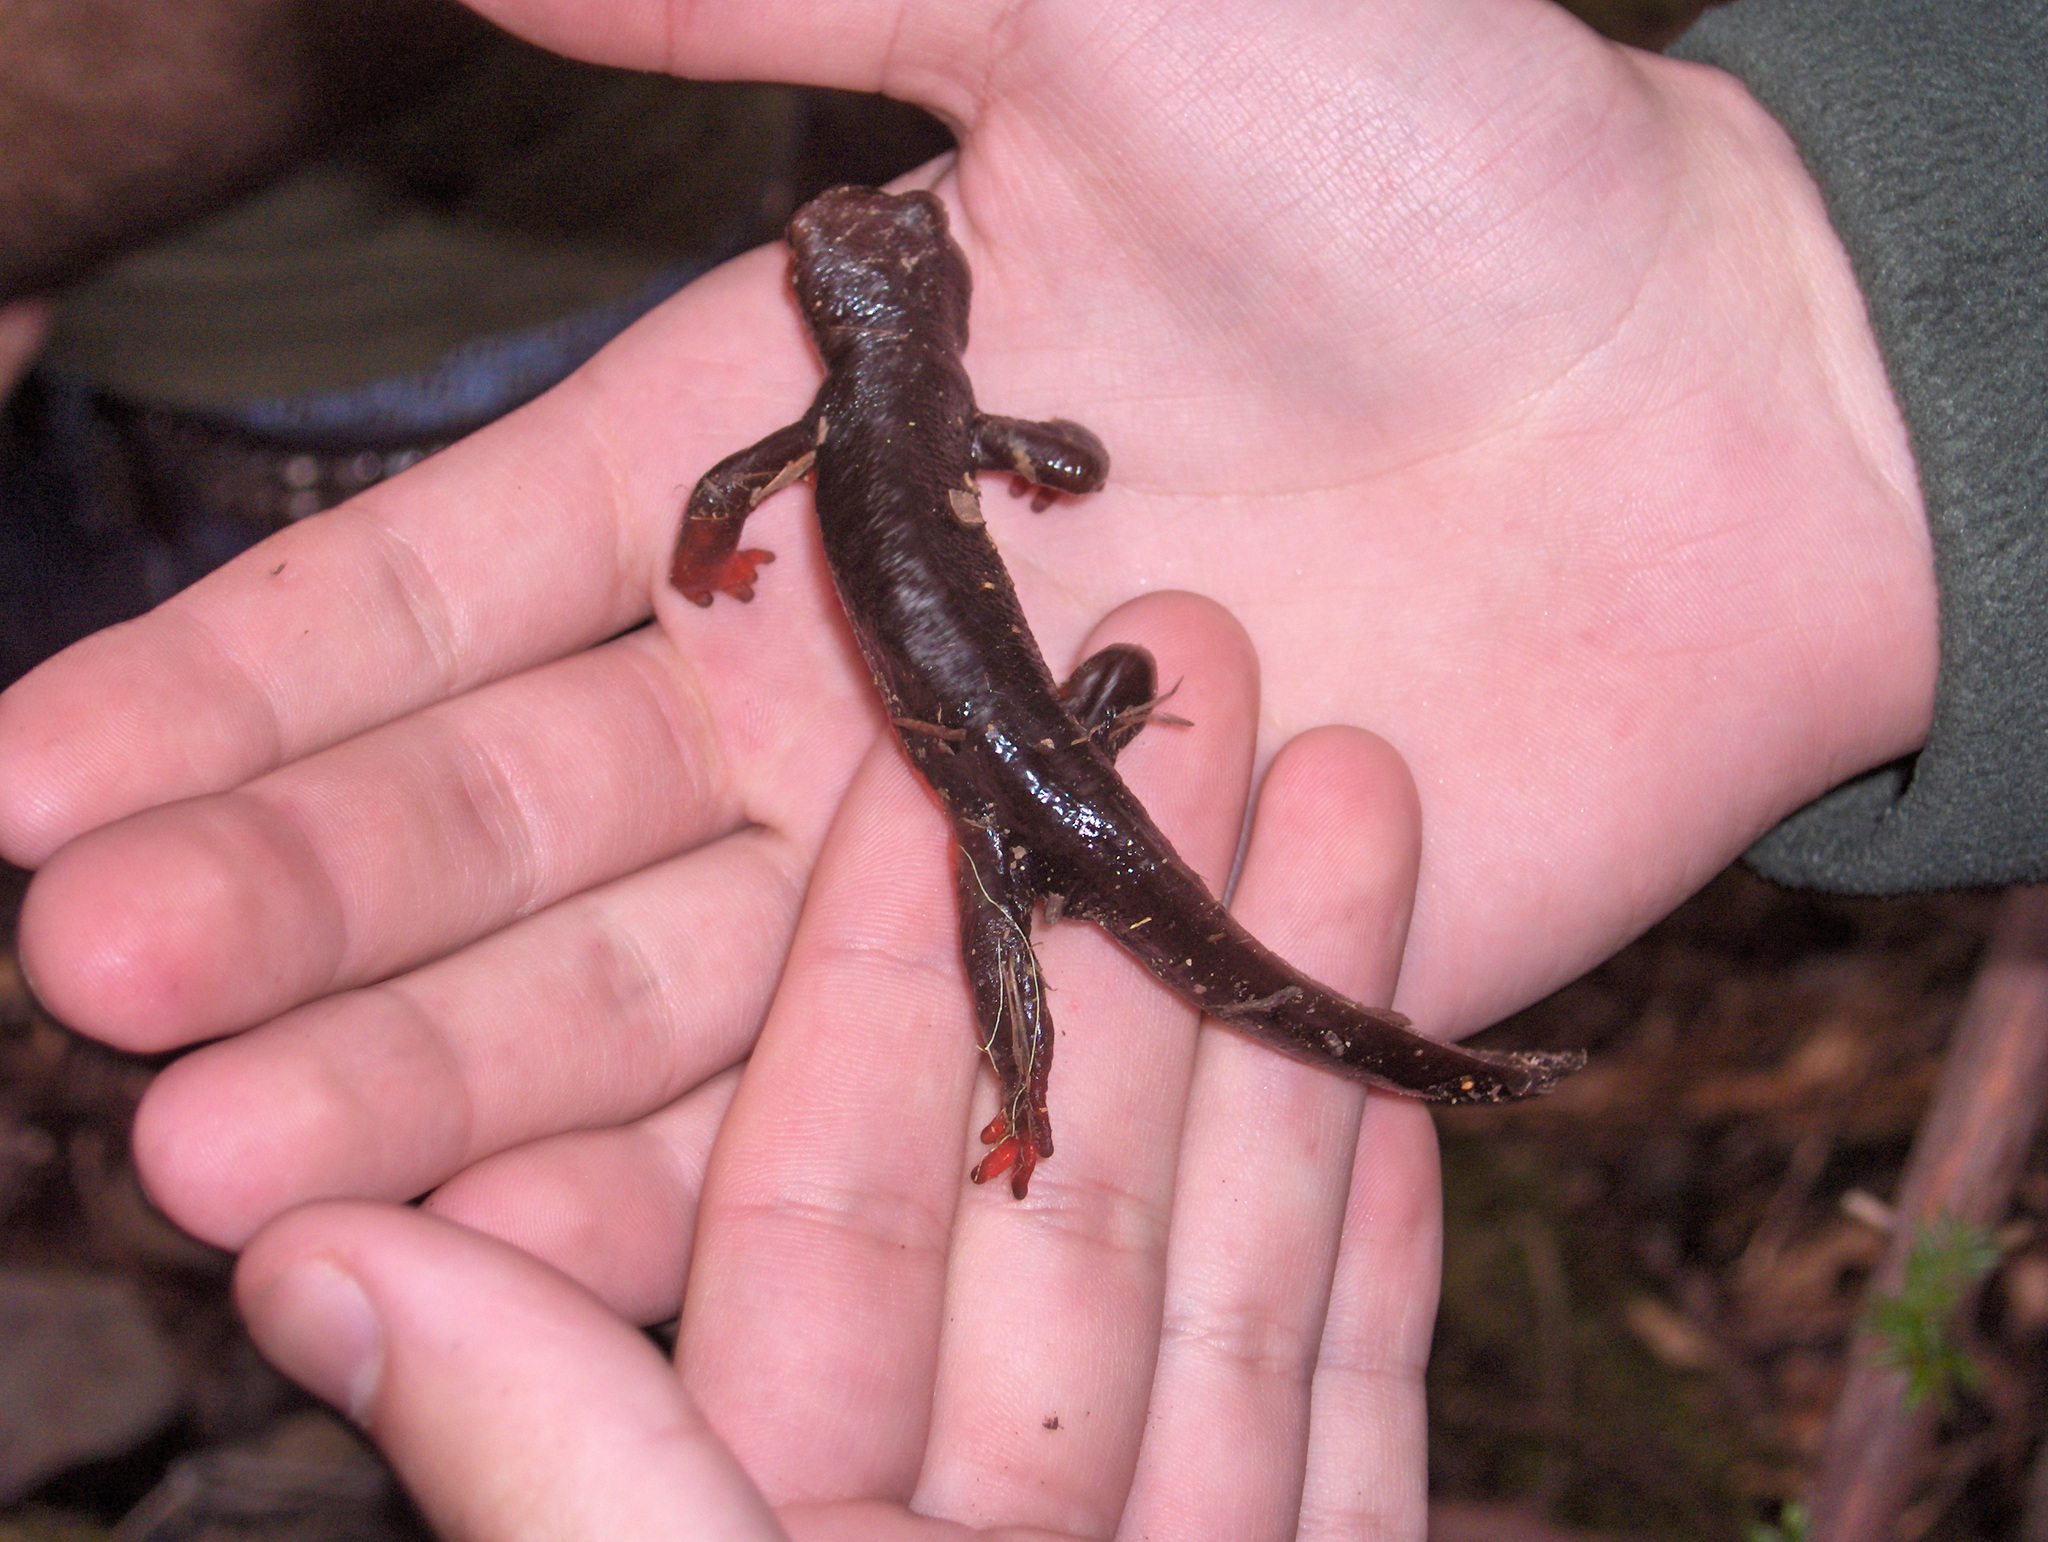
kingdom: Animalia
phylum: Chordata
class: Amphibia
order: Caudata
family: Salamandridae
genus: Taricha
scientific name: Taricha rivularis
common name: Red-bellied newt
